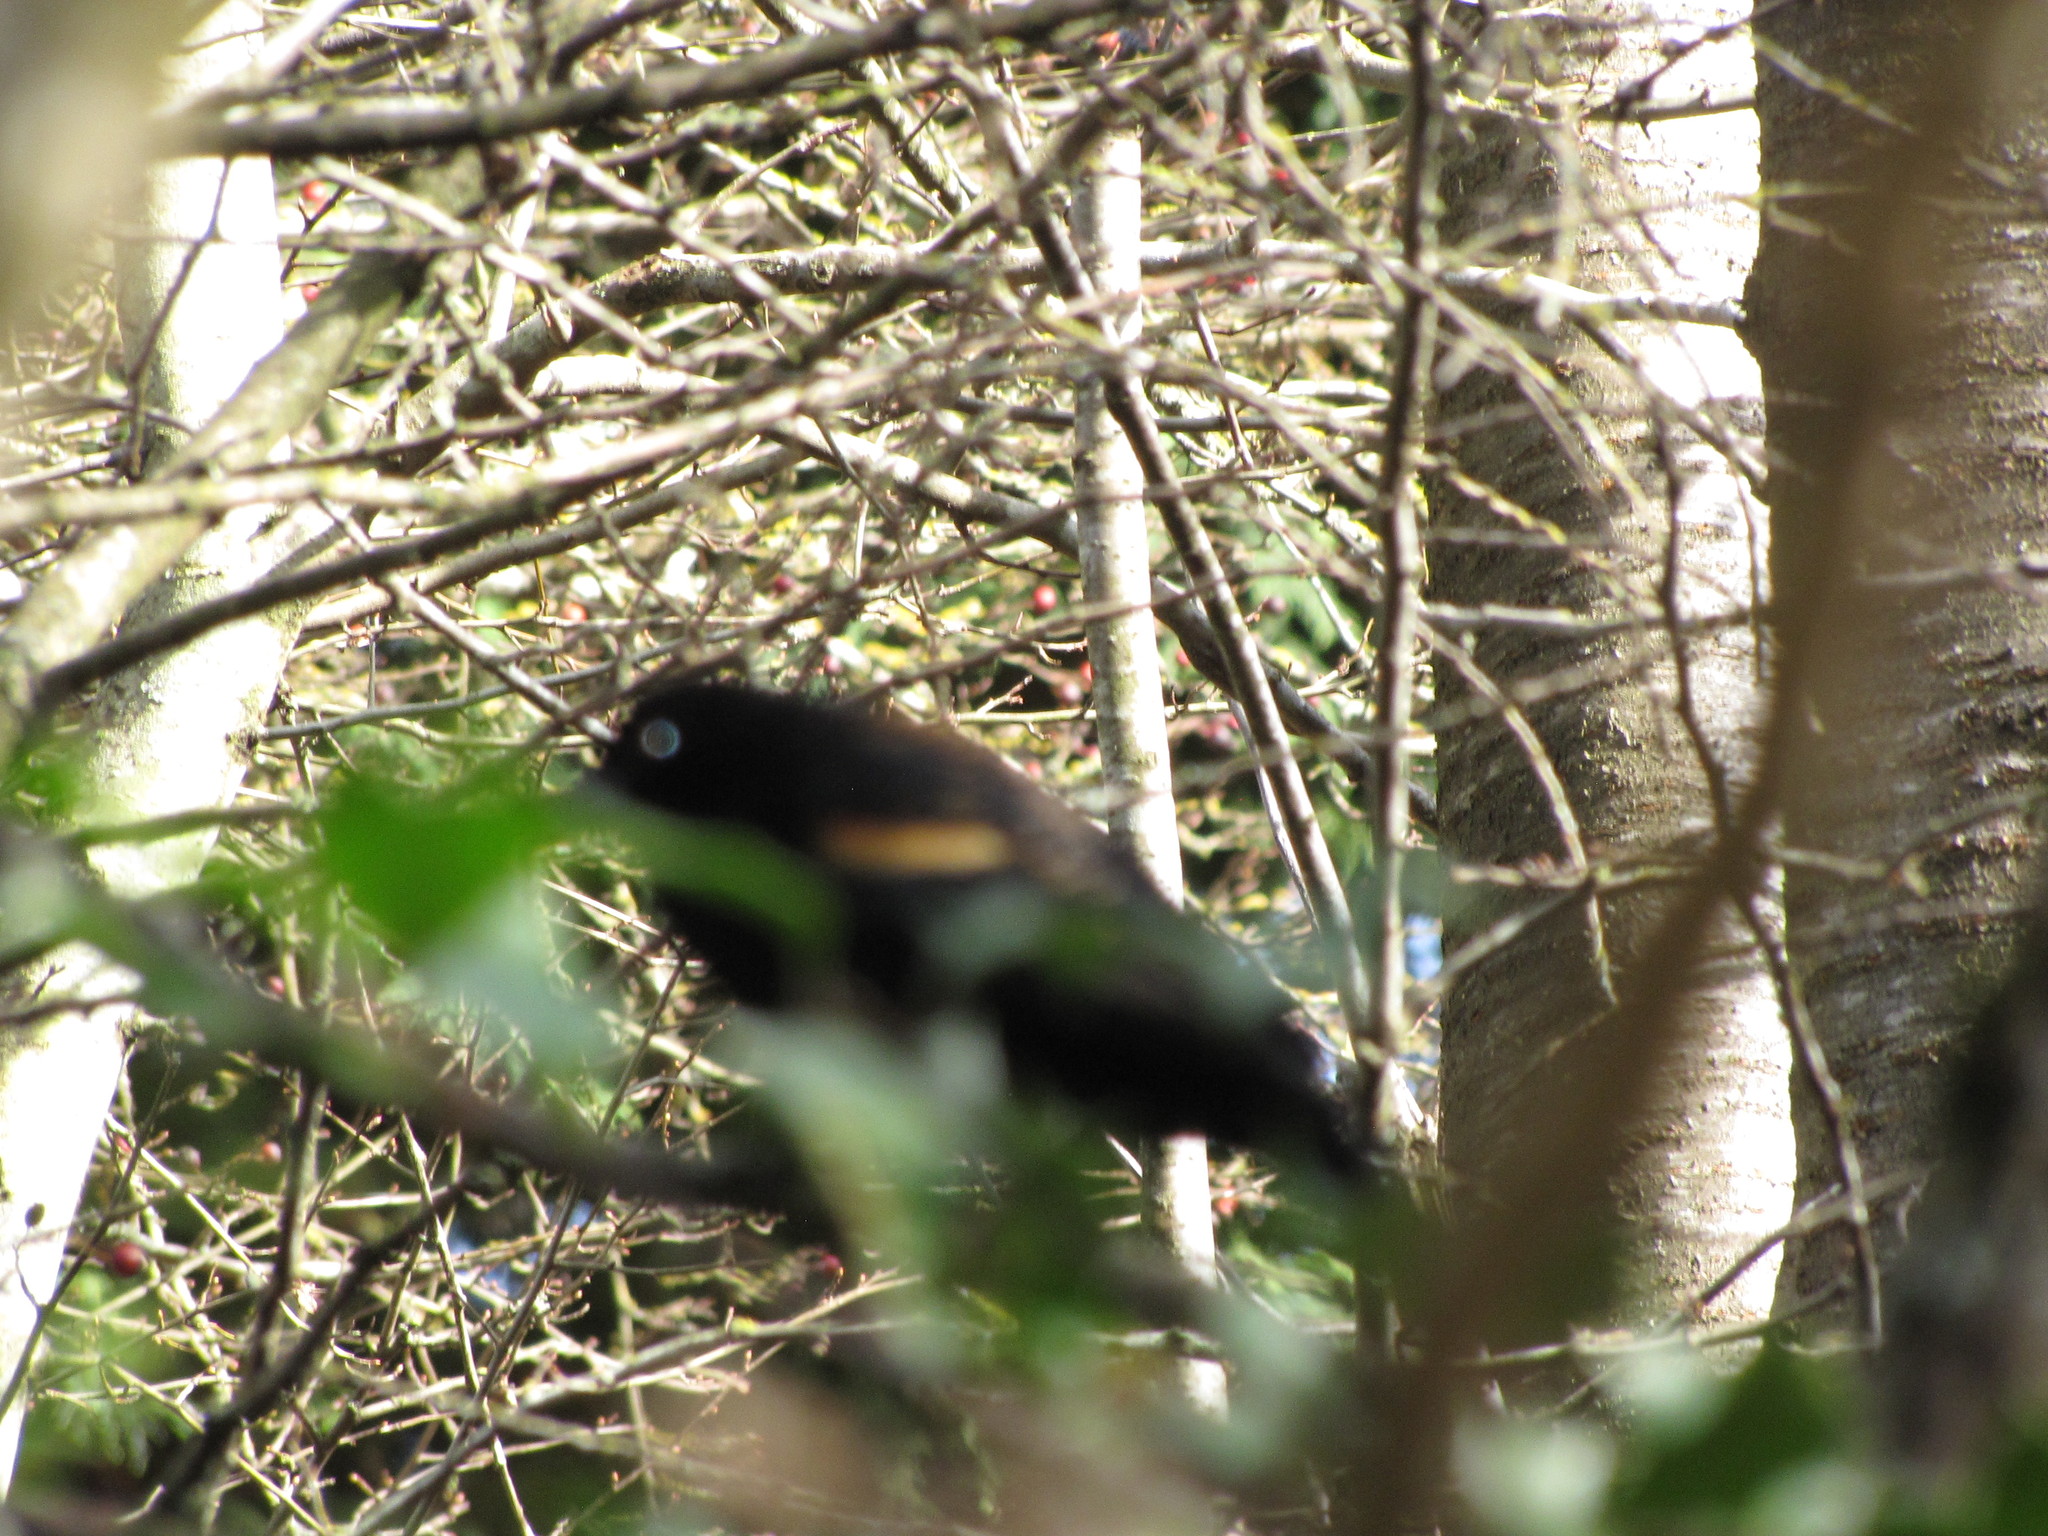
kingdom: Animalia
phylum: Chordata
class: Aves
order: Passeriformes
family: Icteridae
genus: Agelaius
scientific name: Agelaius phoeniceus
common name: Red-winged blackbird
